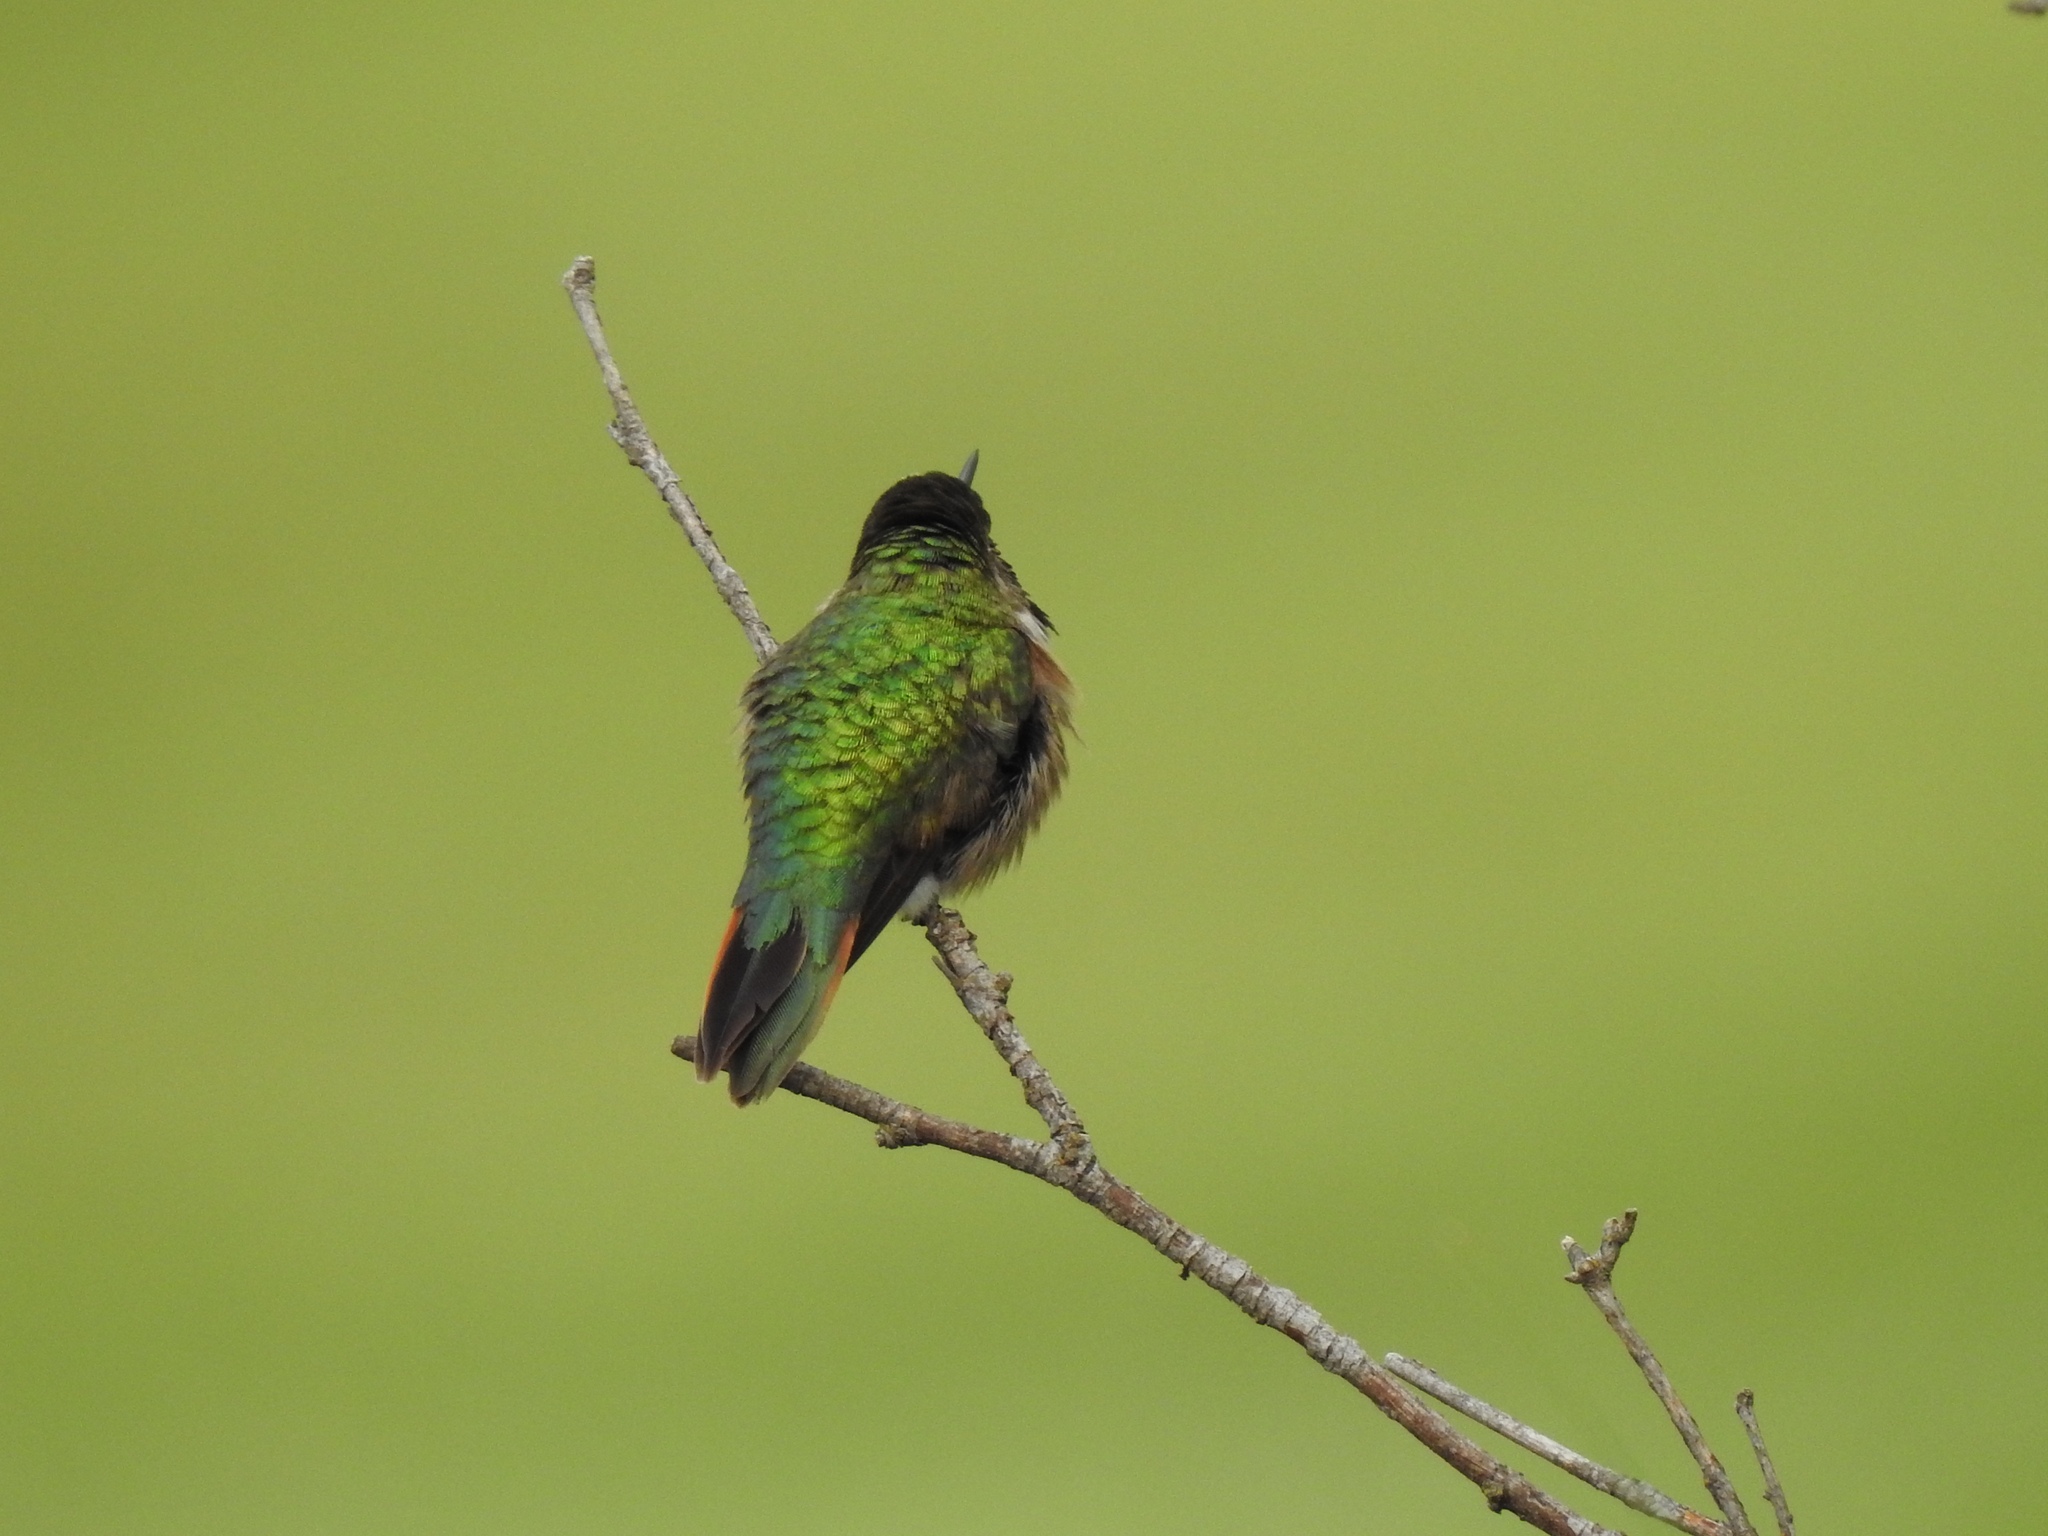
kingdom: Animalia
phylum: Chordata
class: Aves
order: Apodiformes
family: Trochilidae
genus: Selasphorus
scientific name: Selasphorus platycercus
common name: Broad-tailed hummingbird
